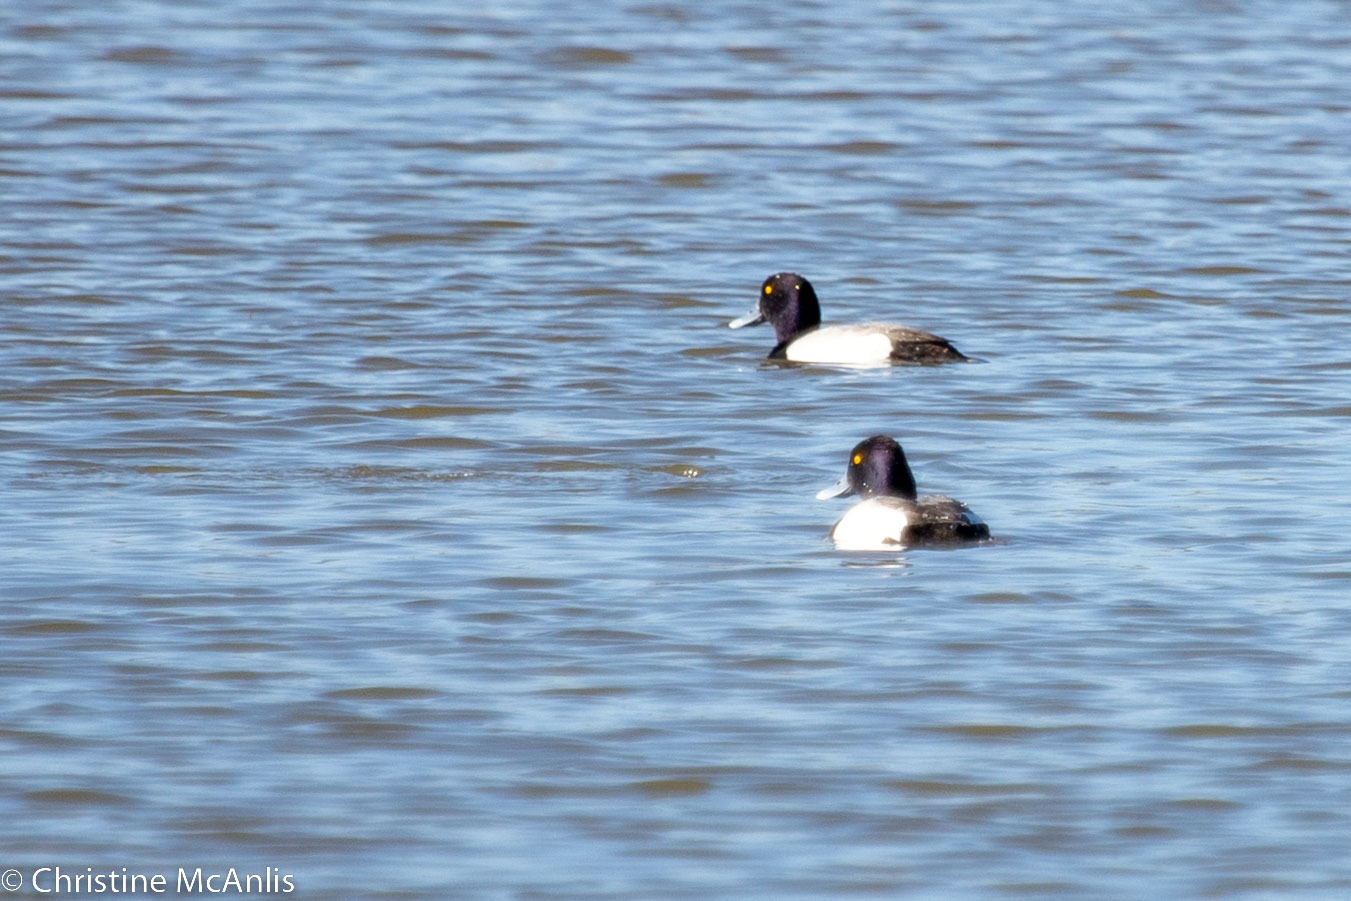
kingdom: Animalia
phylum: Chordata
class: Aves
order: Anseriformes
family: Anatidae
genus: Aythya
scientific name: Aythya affinis
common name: Lesser scaup
